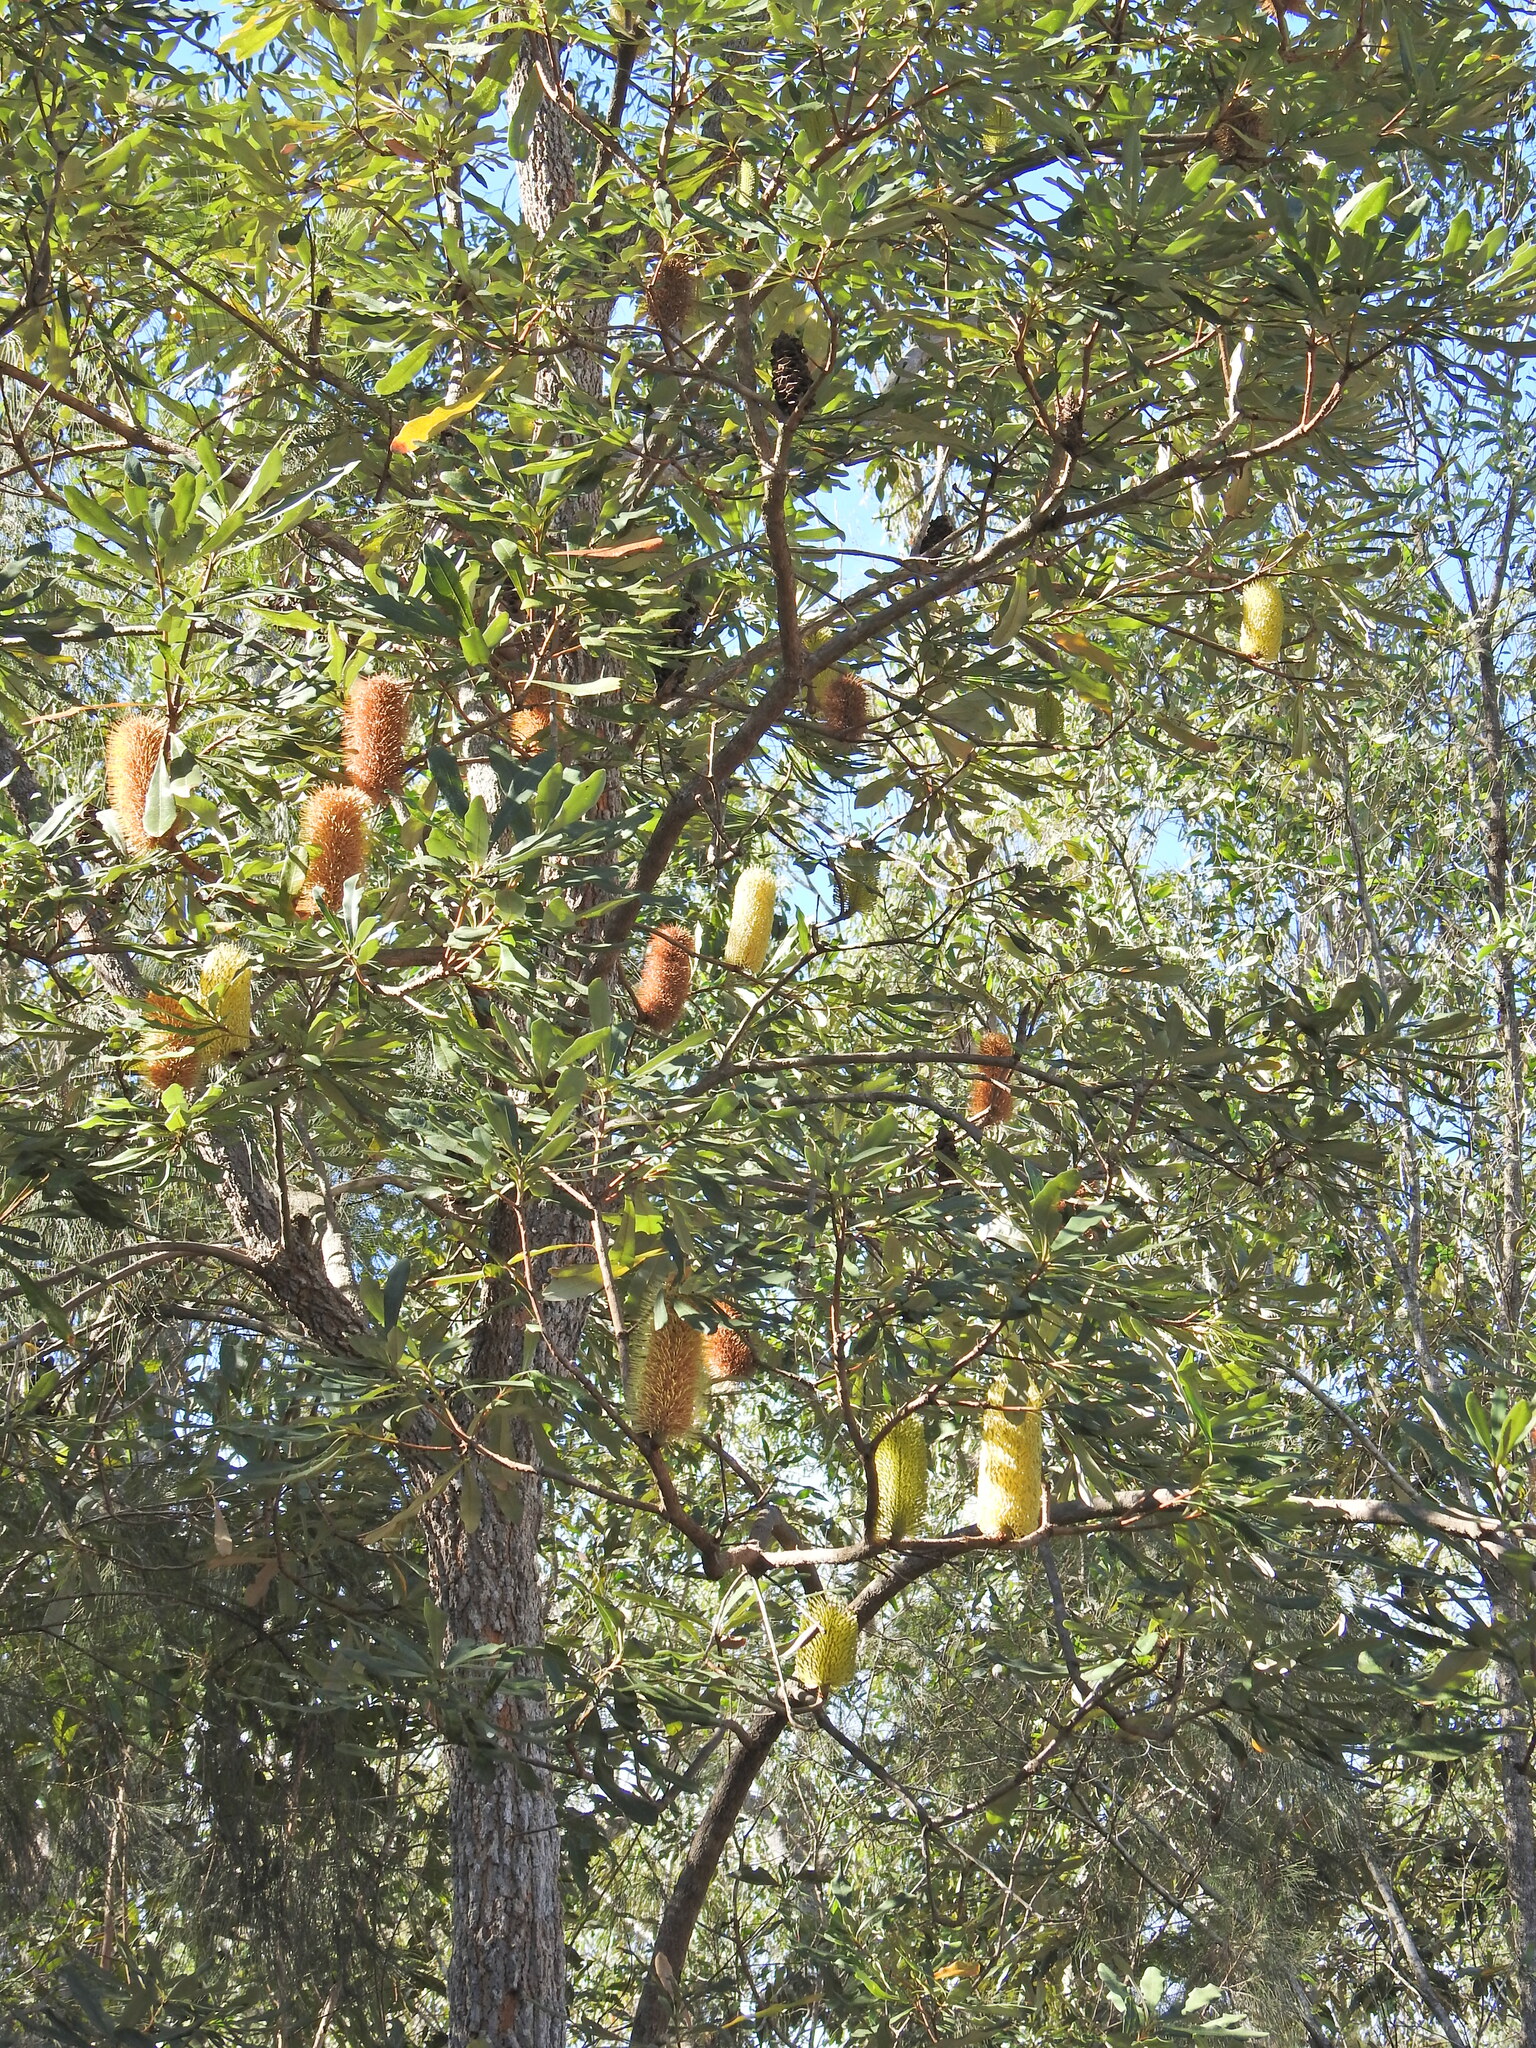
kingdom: Plantae
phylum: Tracheophyta
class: Magnoliopsida
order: Proteales
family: Proteaceae
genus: Banksia
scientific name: Banksia integrifolia
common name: White-honeysuckle
